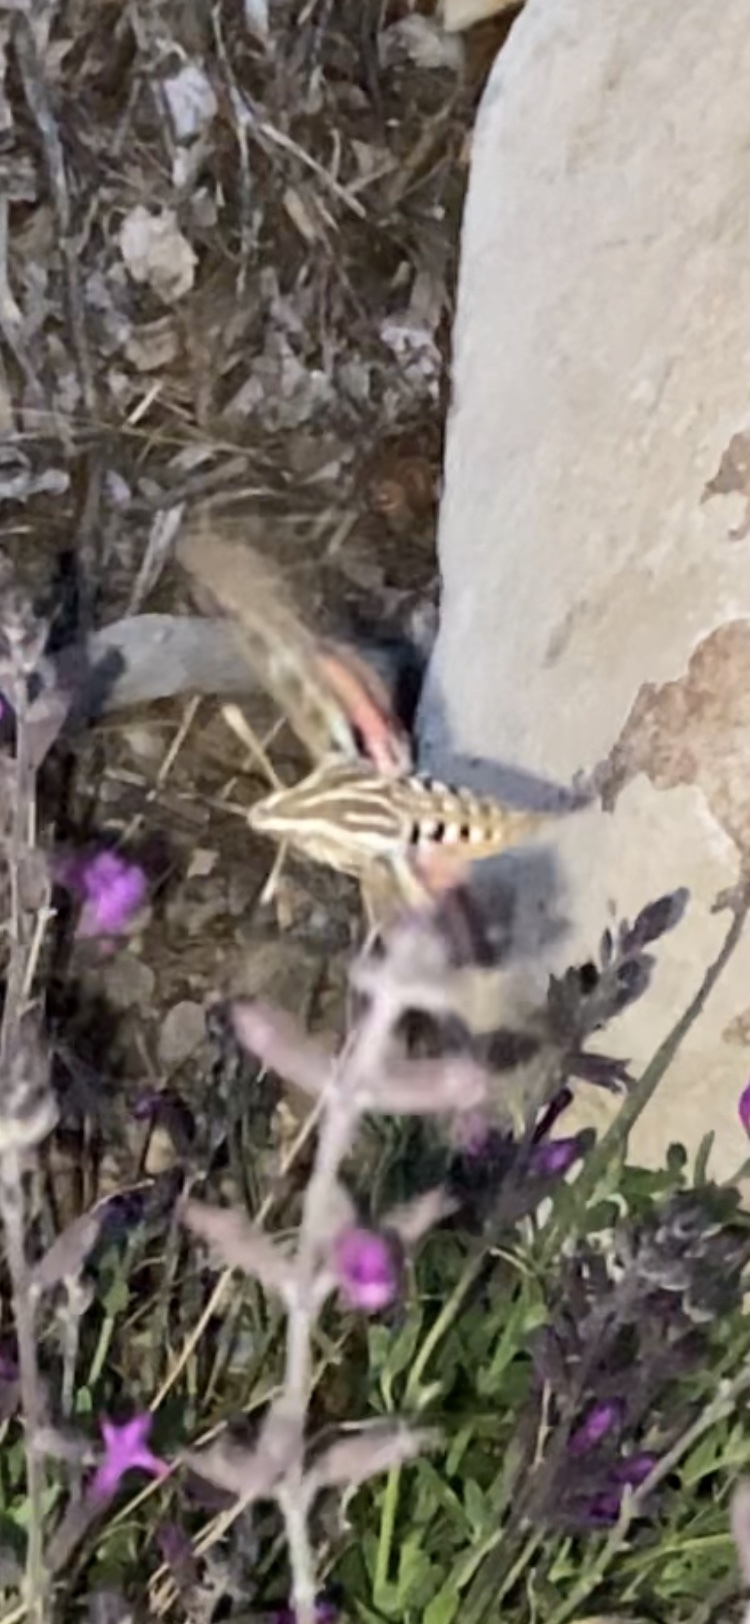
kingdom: Animalia
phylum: Arthropoda
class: Insecta
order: Lepidoptera
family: Sphingidae
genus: Hyles
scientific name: Hyles lineata
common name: White-lined sphinx
